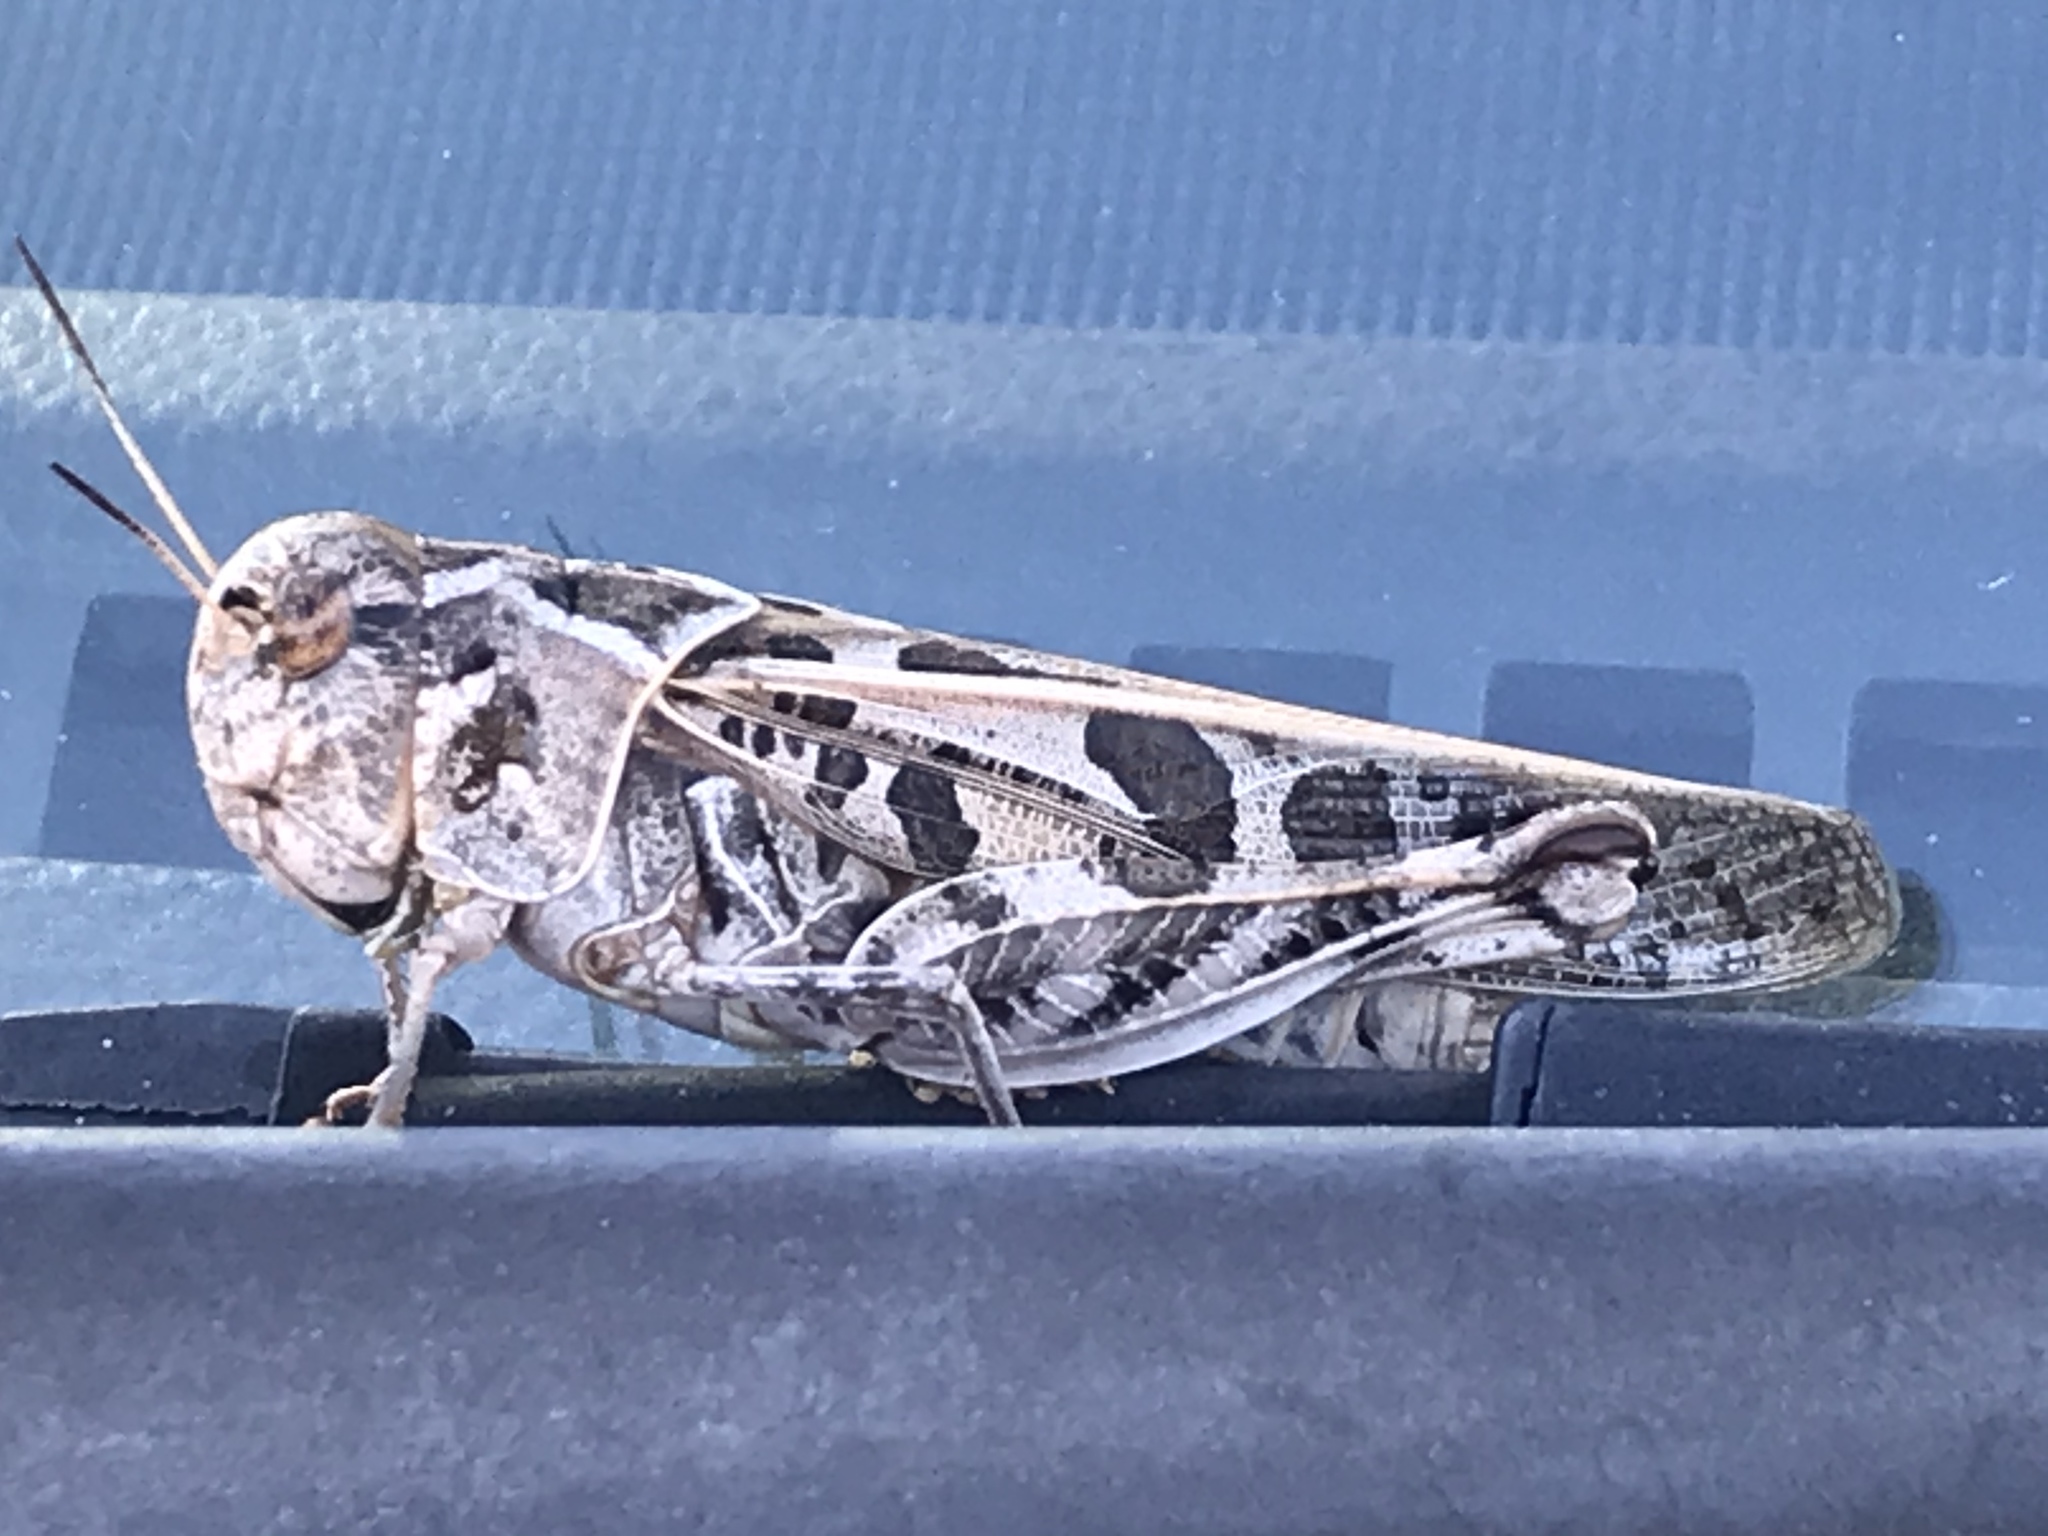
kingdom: Animalia
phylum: Arthropoda
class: Insecta
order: Orthoptera
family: Acrididae
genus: Hippiscus
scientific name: Hippiscus ocelote
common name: Wrinkled grasshopper
